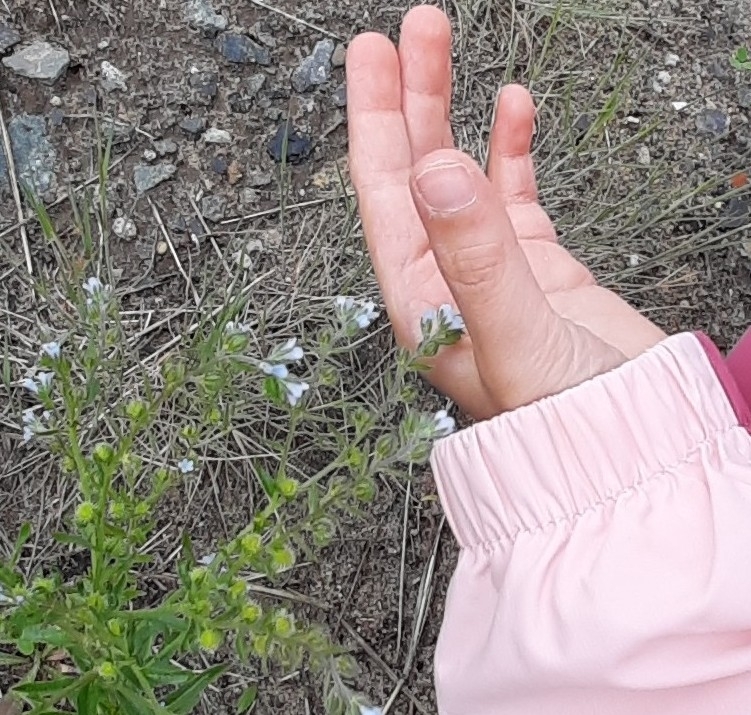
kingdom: Plantae
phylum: Tracheophyta
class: Magnoliopsida
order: Boraginales
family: Boraginaceae
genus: Lappula
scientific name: Lappula squarrosa
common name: European stickseed
